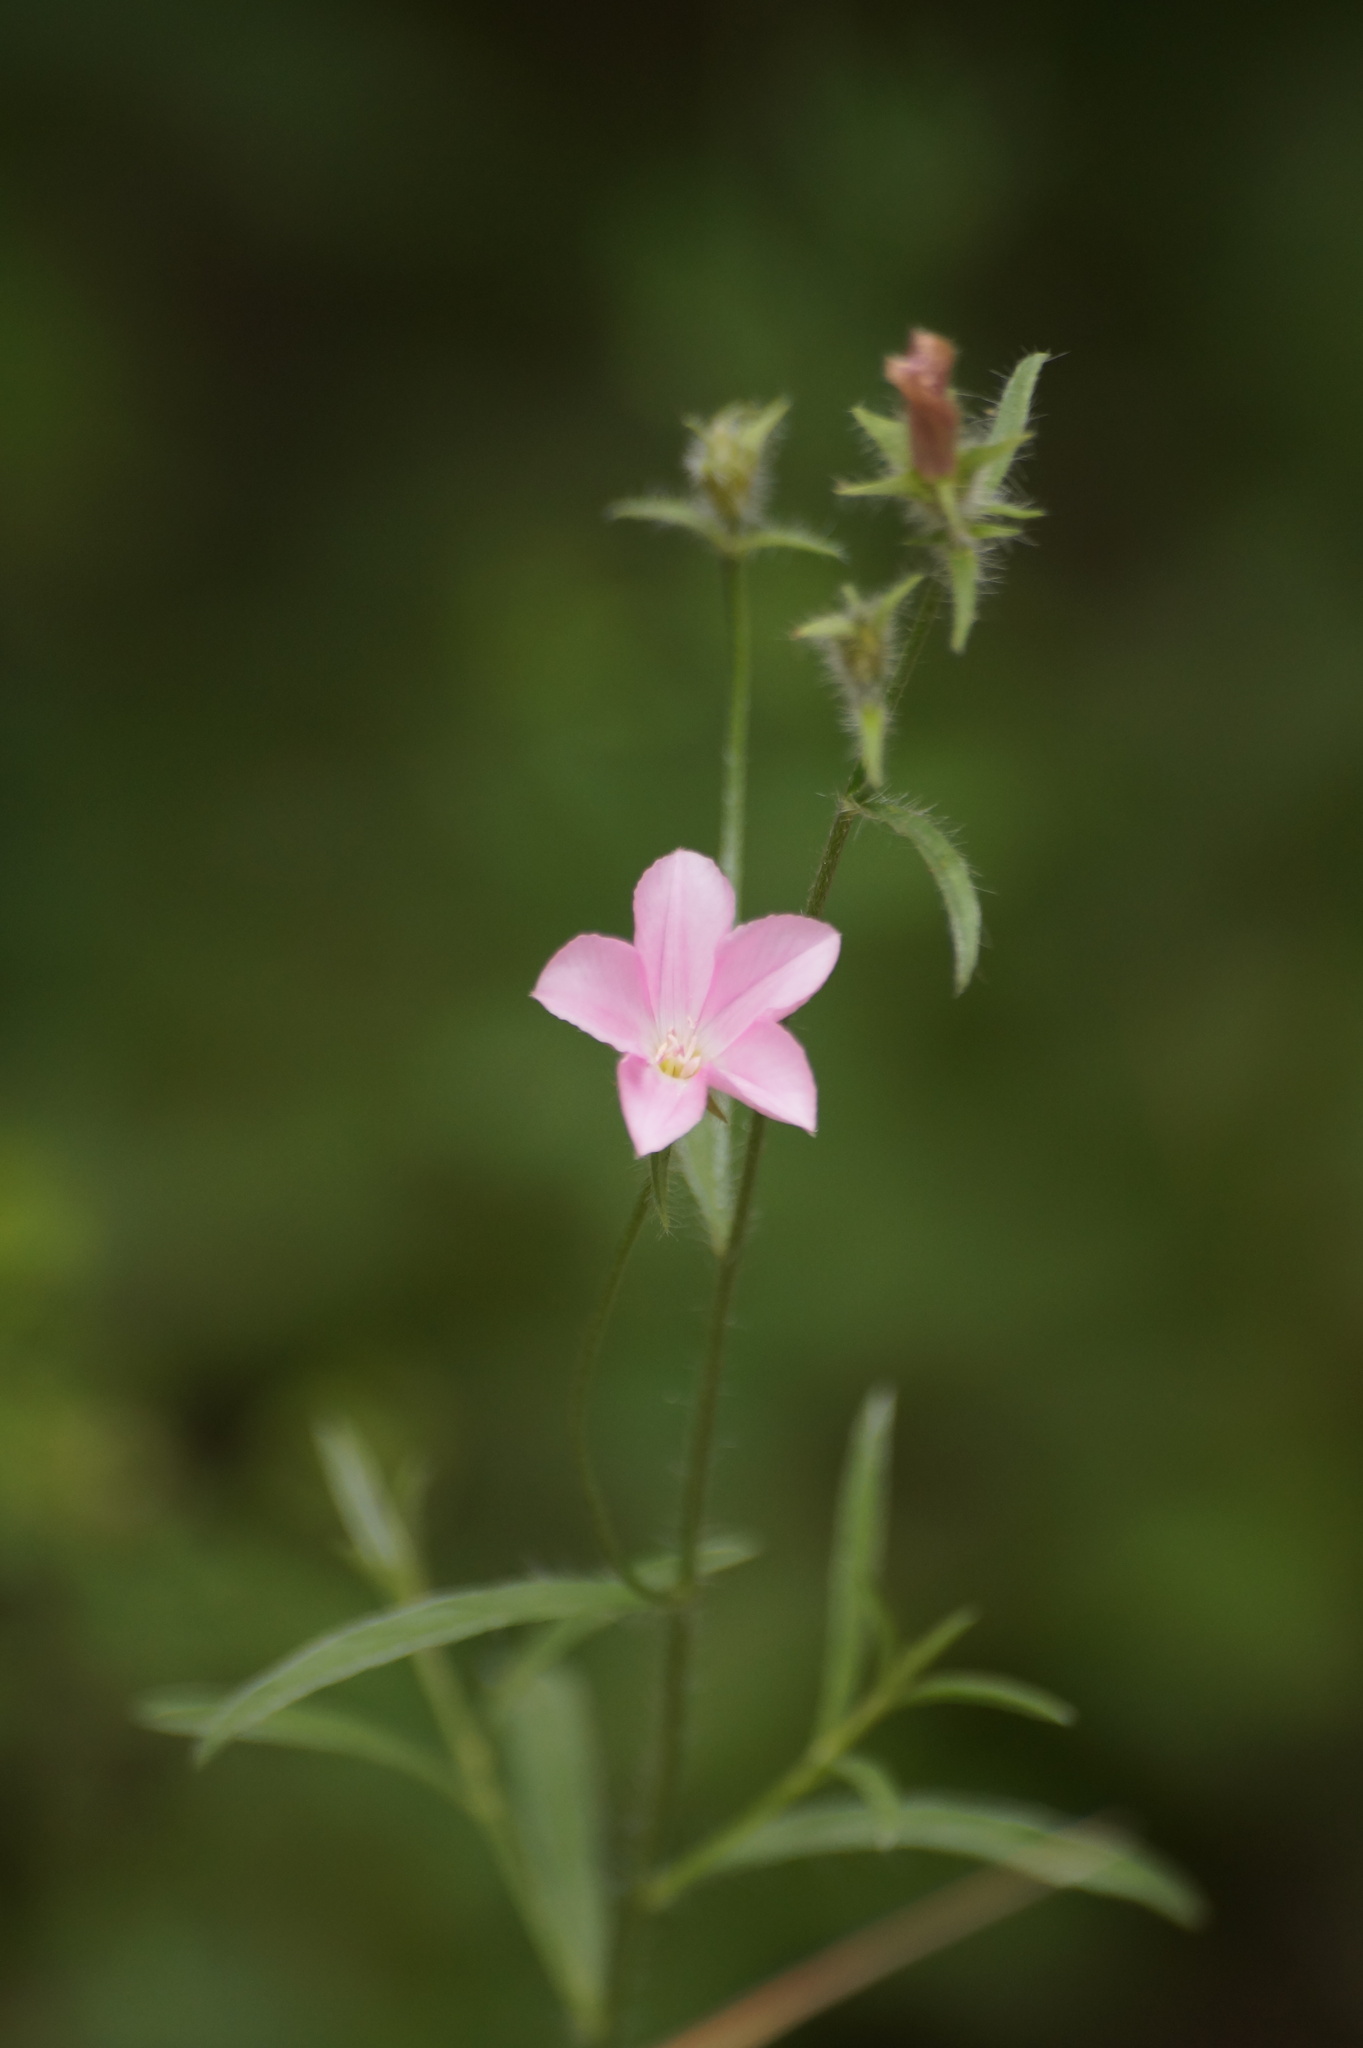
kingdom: Plantae
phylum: Tracheophyta
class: Magnoliopsida
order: Solanales
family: Convolvulaceae
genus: Convolvulus
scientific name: Convolvulus cantabrica
